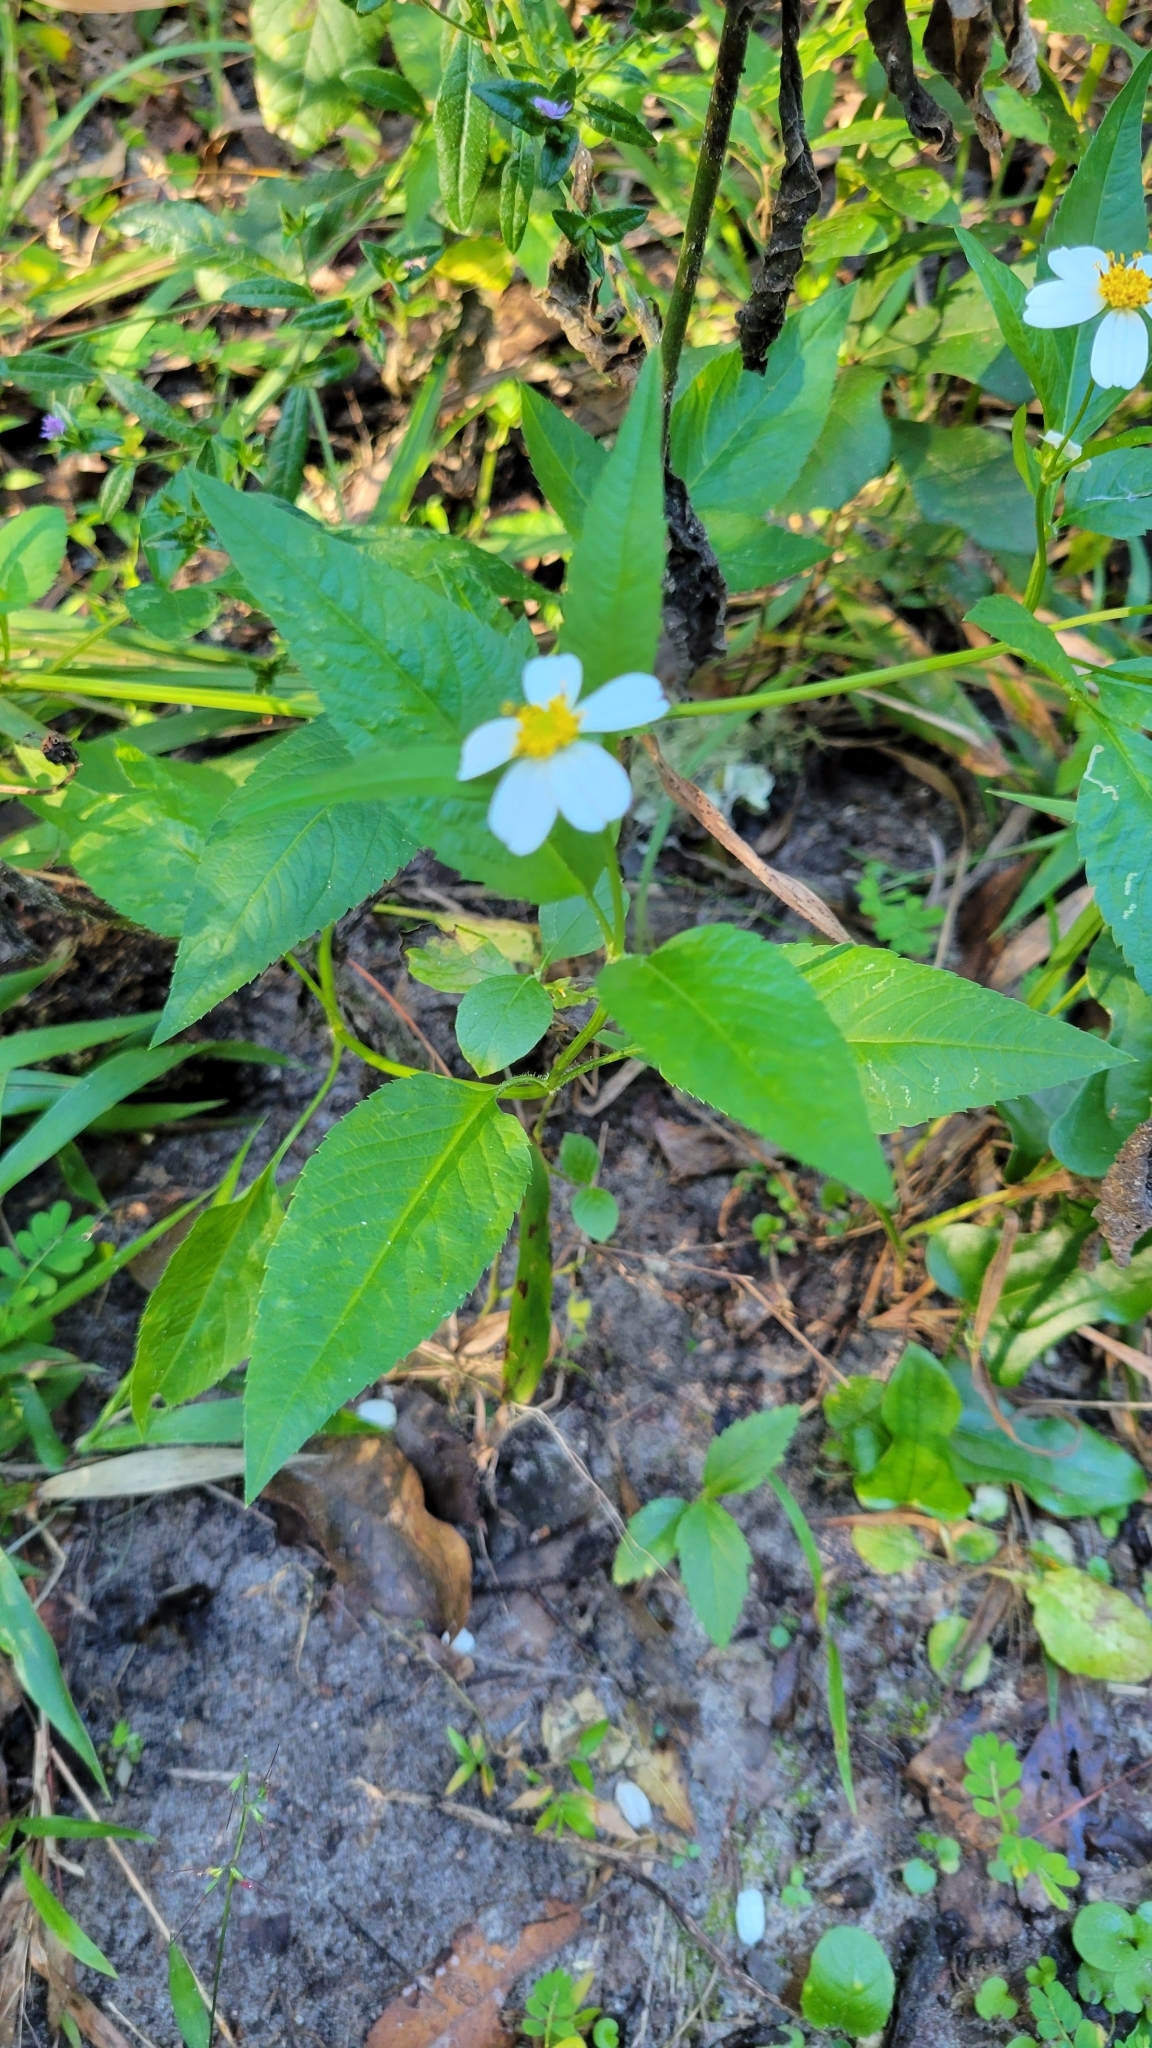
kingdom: Plantae
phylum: Tracheophyta
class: Magnoliopsida
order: Asterales
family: Asteraceae
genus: Bidens
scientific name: Bidens alba
